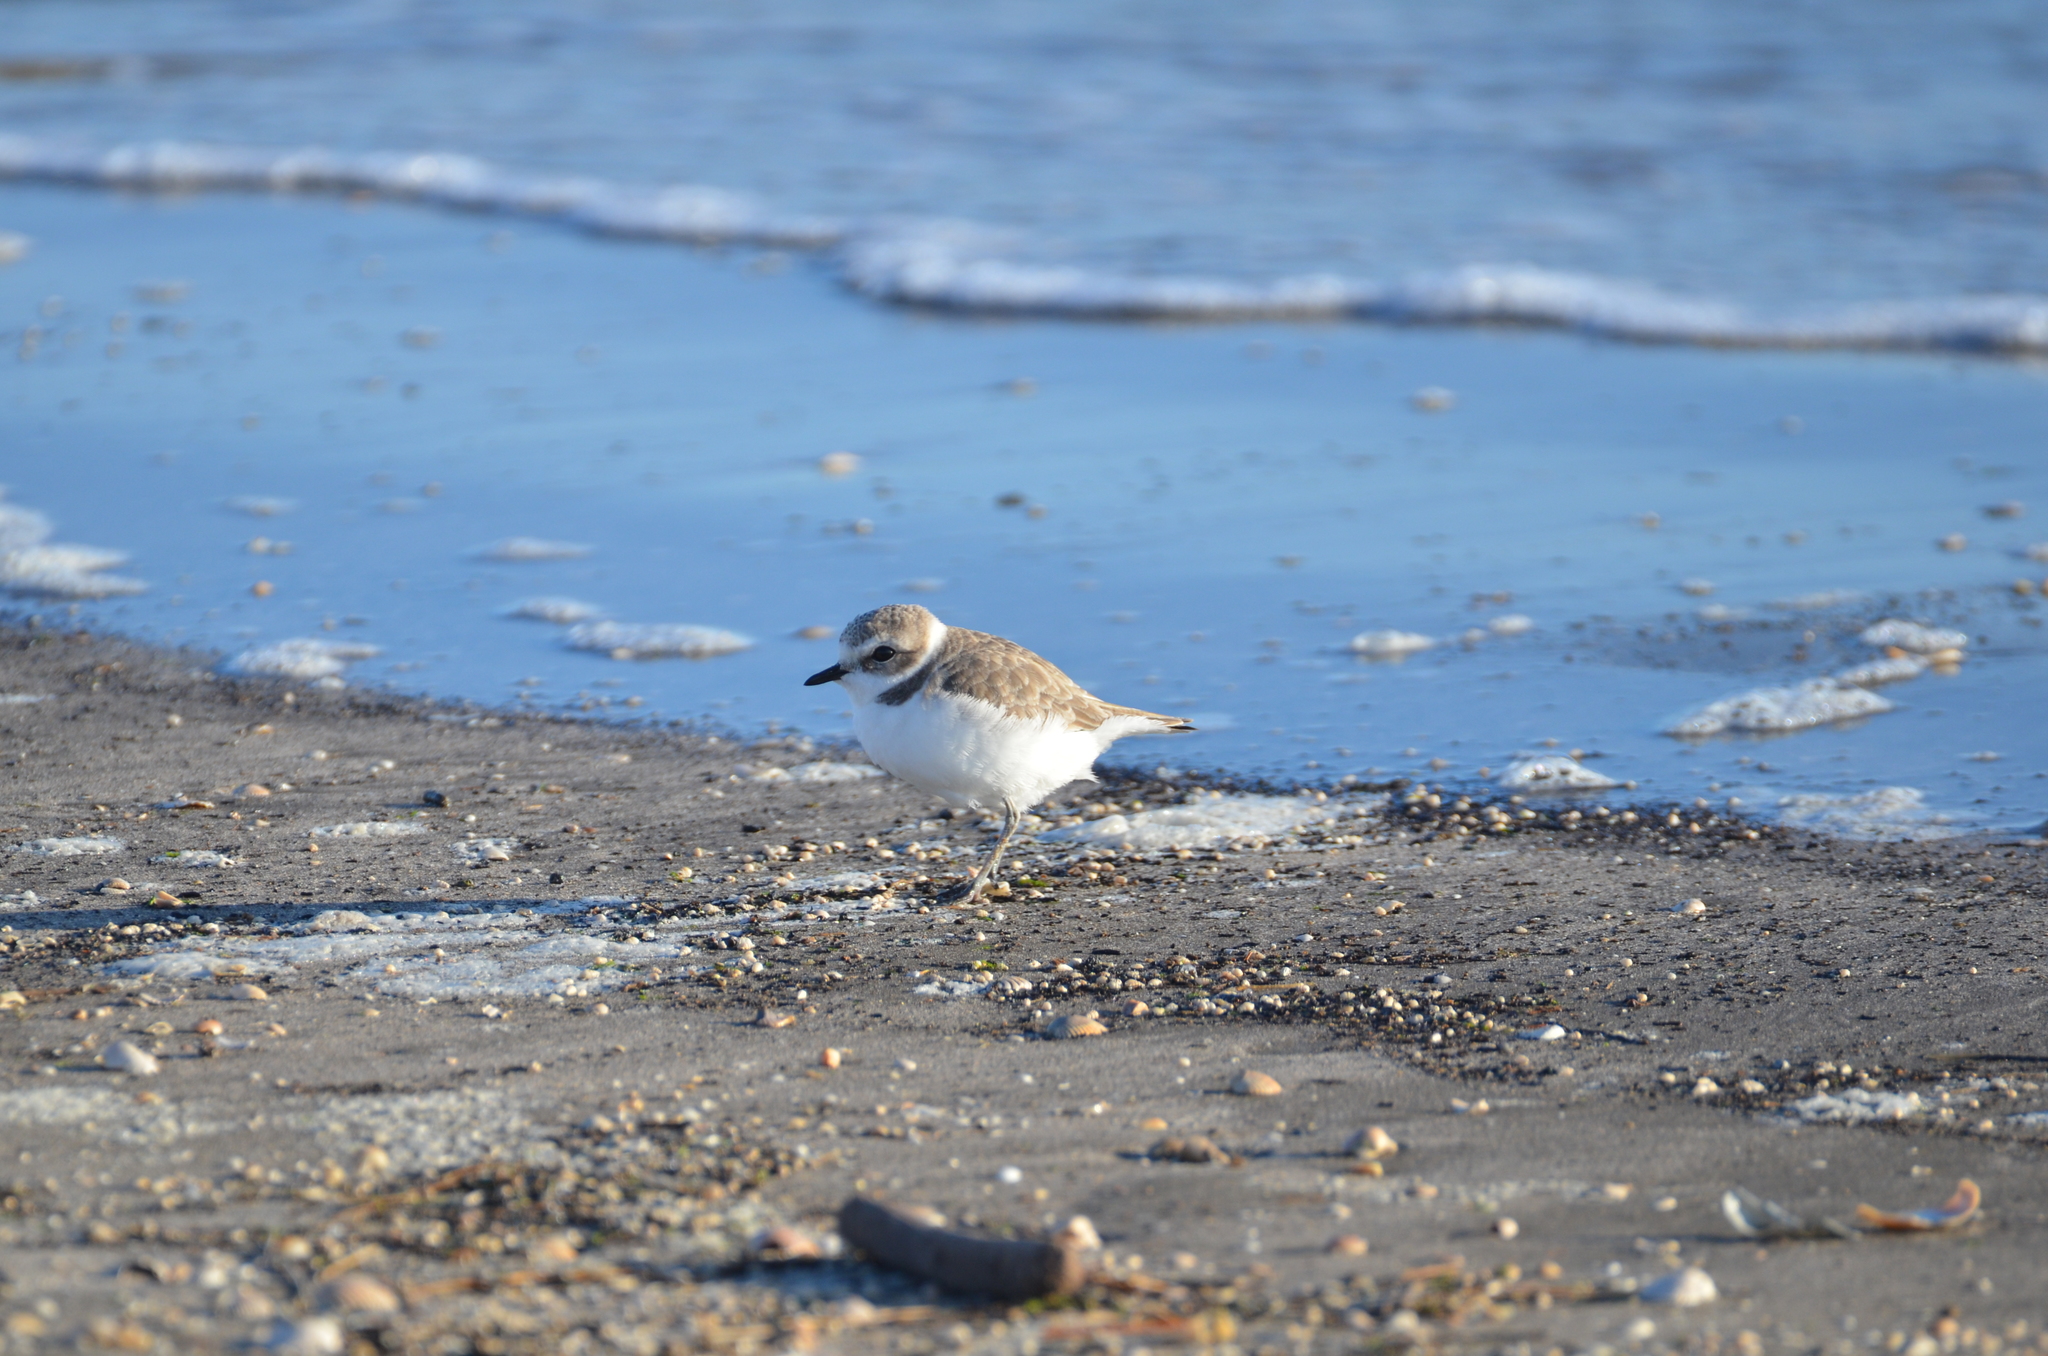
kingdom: Animalia
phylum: Chordata
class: Aves
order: Charadriiformes
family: Charadriidae
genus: Anarhynchus
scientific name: Anarhynchus
